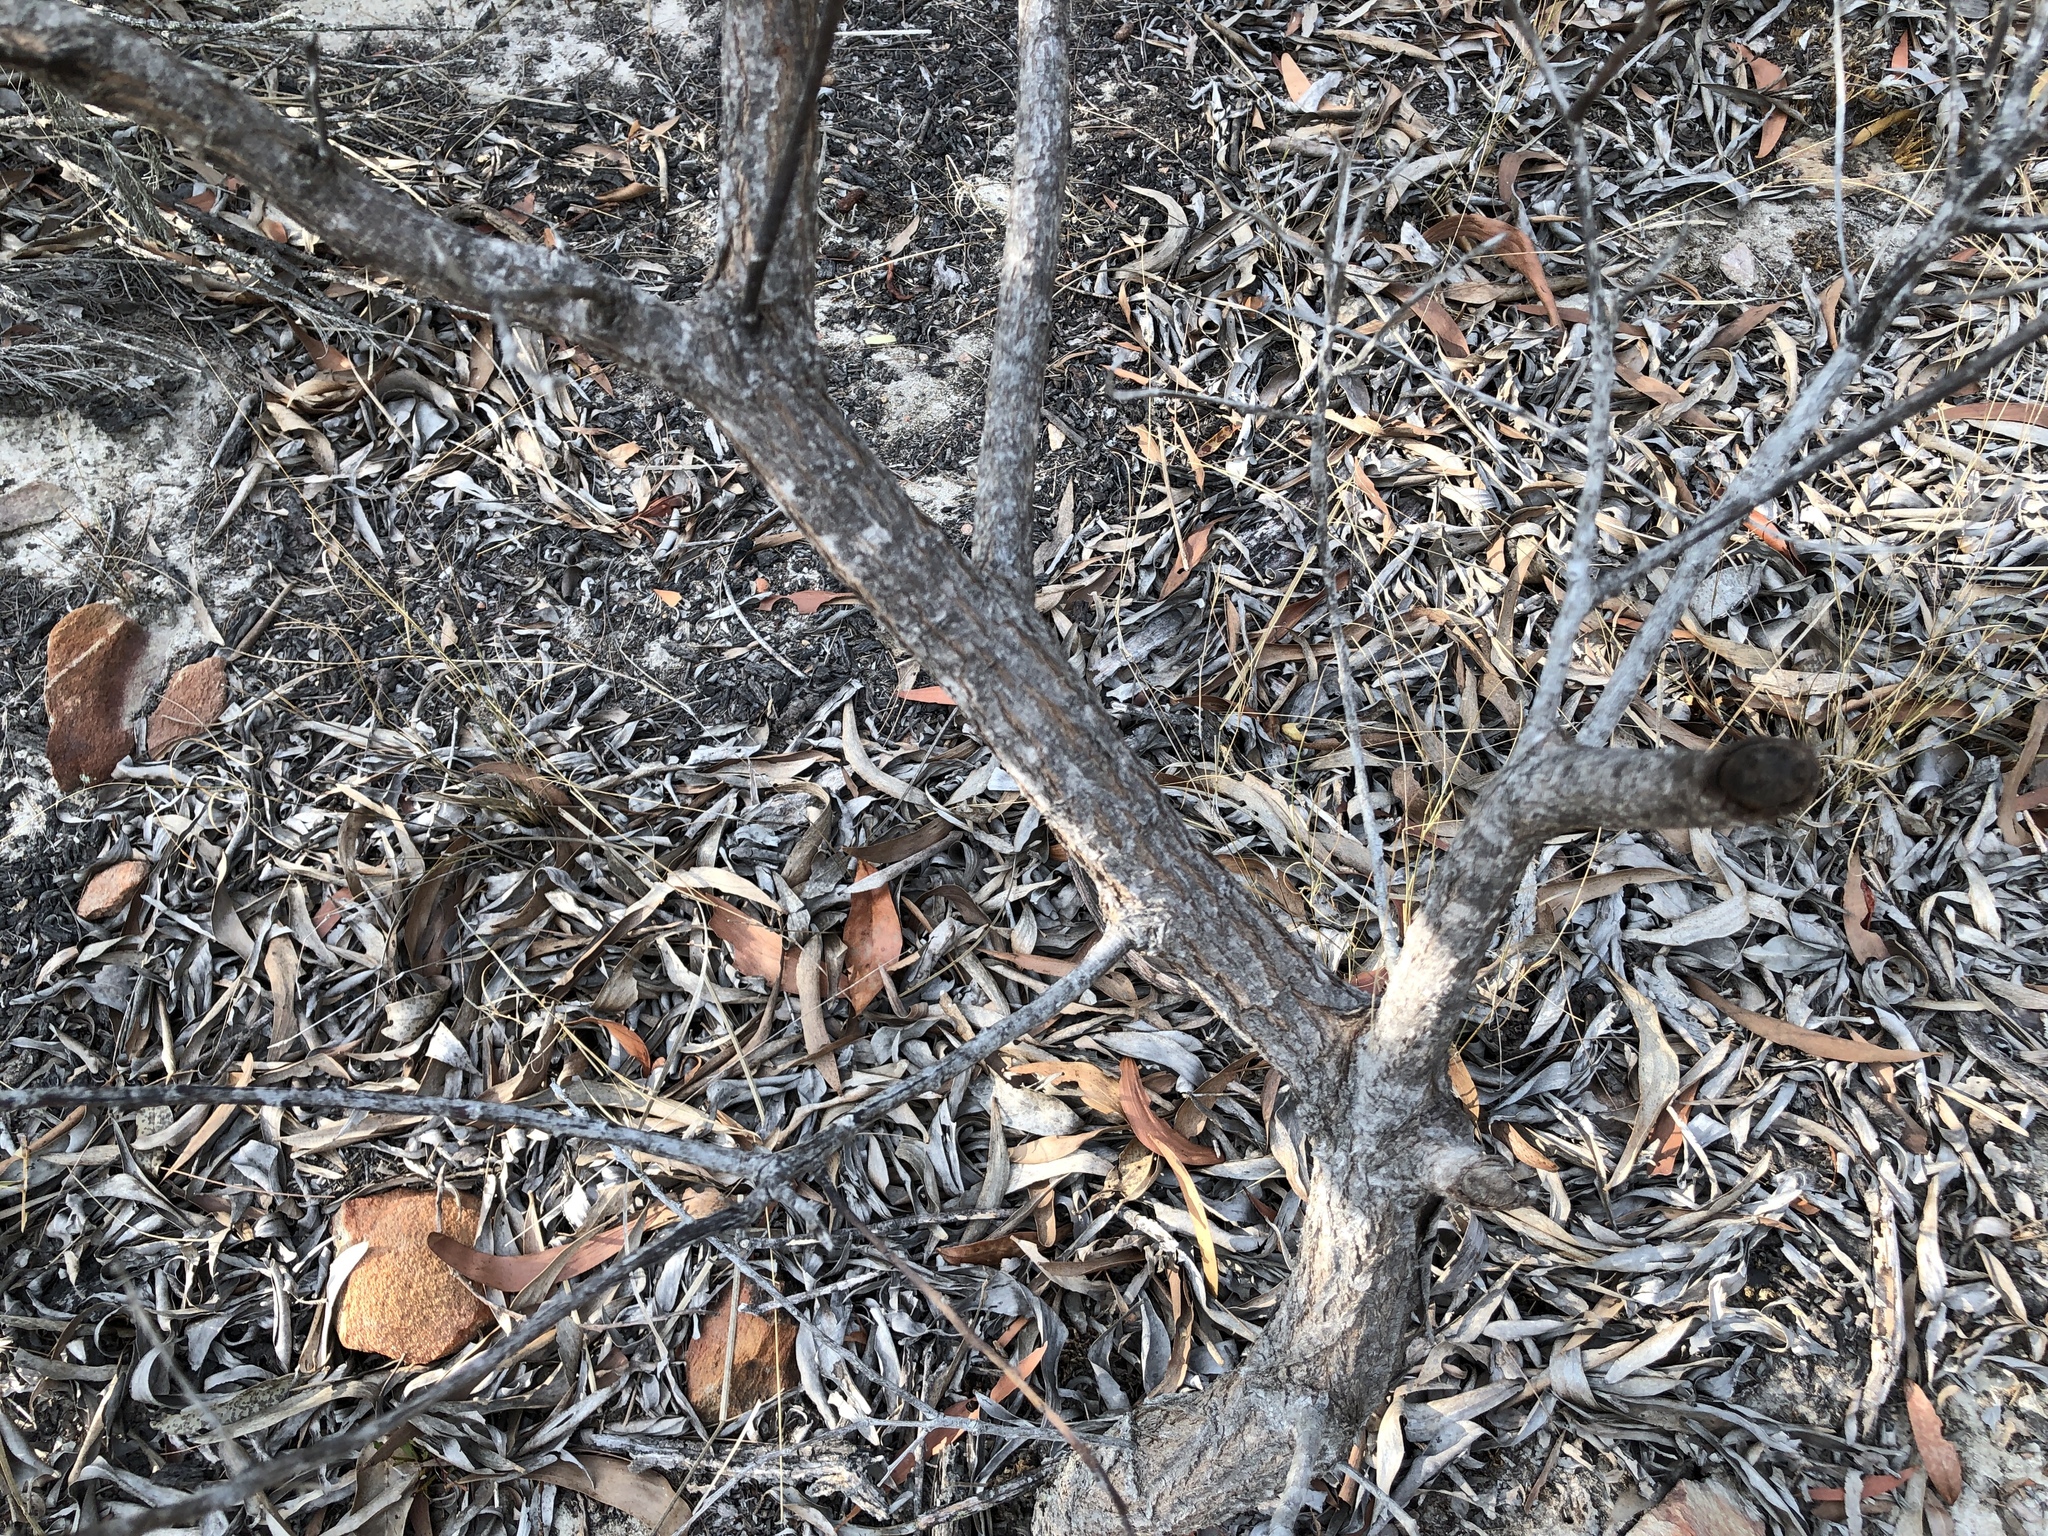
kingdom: Plantae
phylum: Tracheophyta
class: Magnoliopsida
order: Fabales
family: Fabaceae
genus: Acacia
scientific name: Acacia leiocalyx
